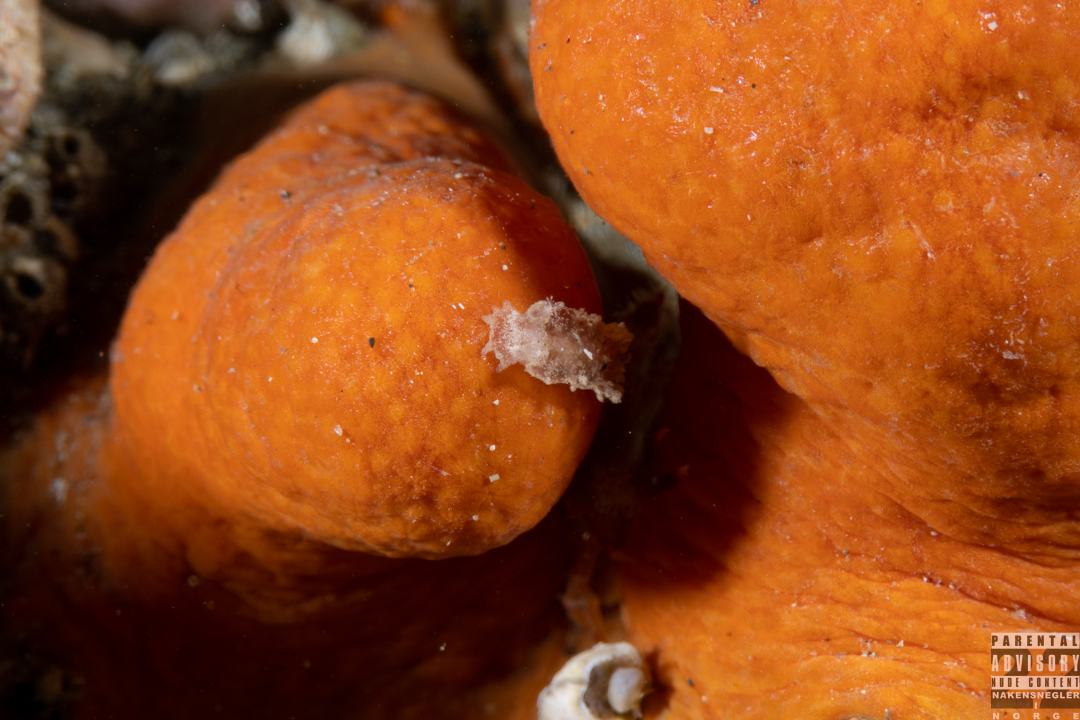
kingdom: Animalia
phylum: Mollusca
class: Gastropoda
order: Nudibranchia
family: Tritoniidae
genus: Duvaucelia
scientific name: Duvaucelia plebeia
